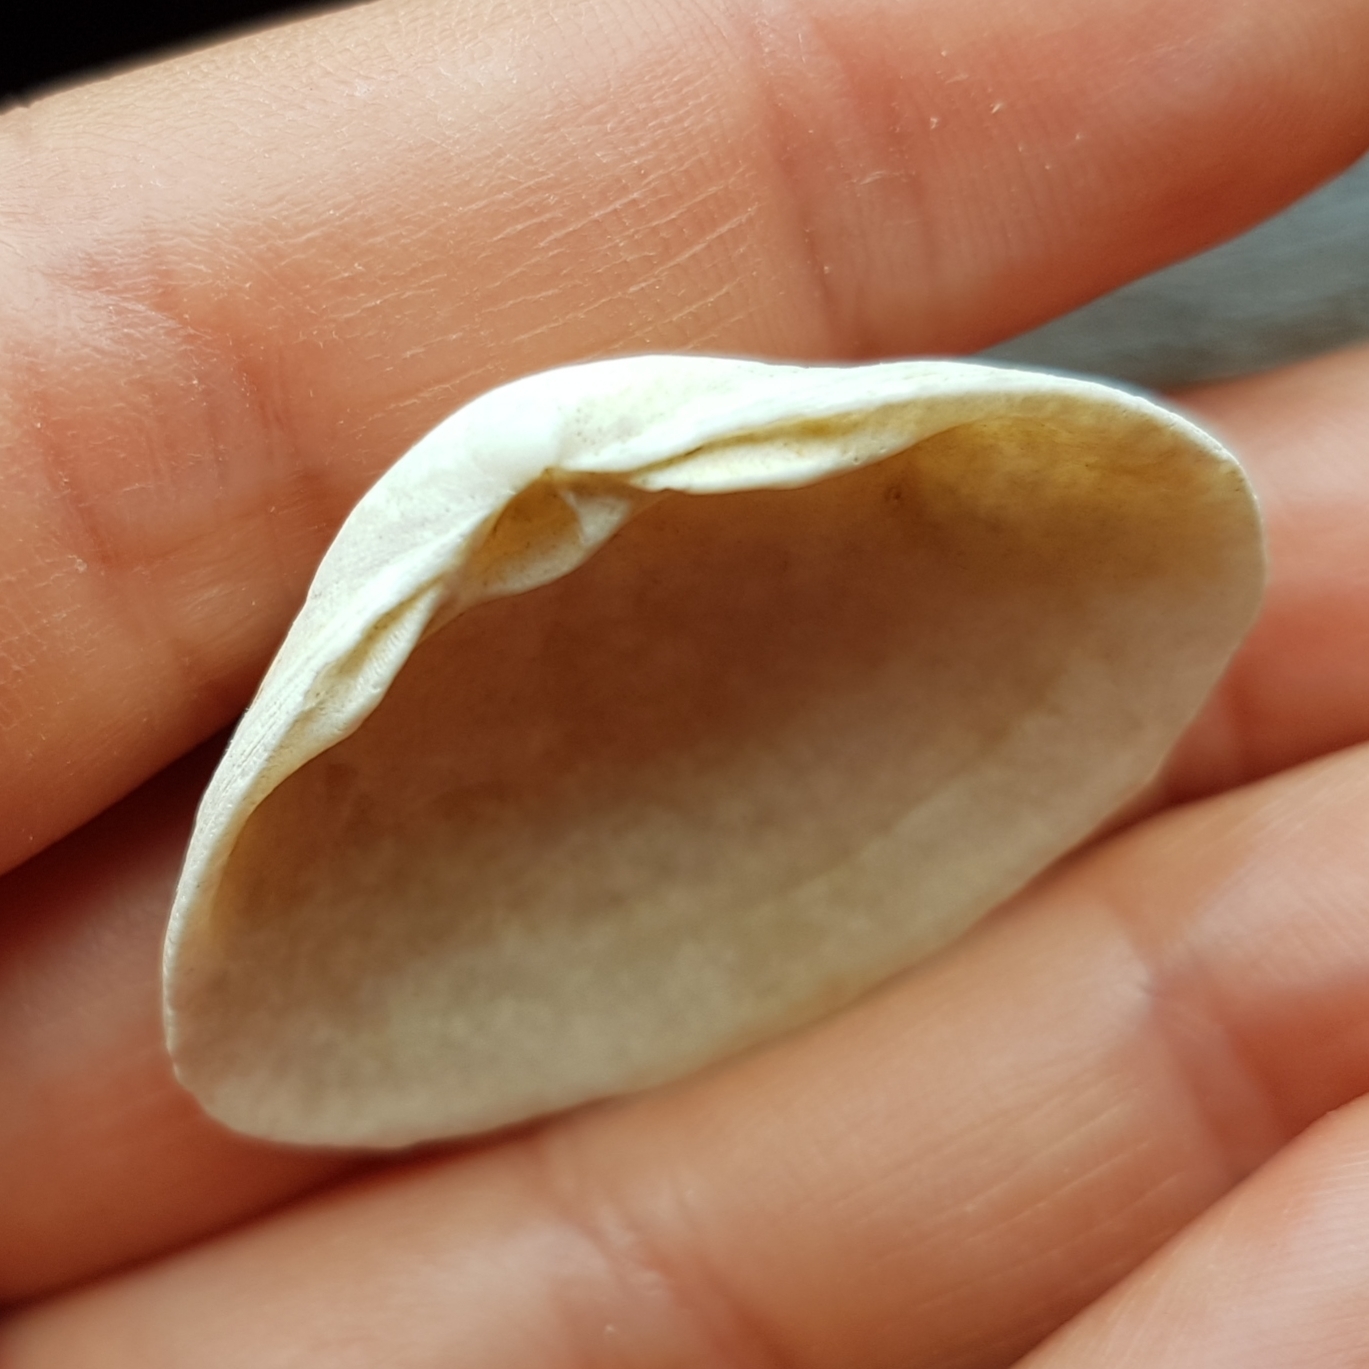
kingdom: Animalia
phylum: Mollusca
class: Bivalvia
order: Venerida
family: Mactridae
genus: Spisula
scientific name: Spisula solida
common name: Thick trough shell
